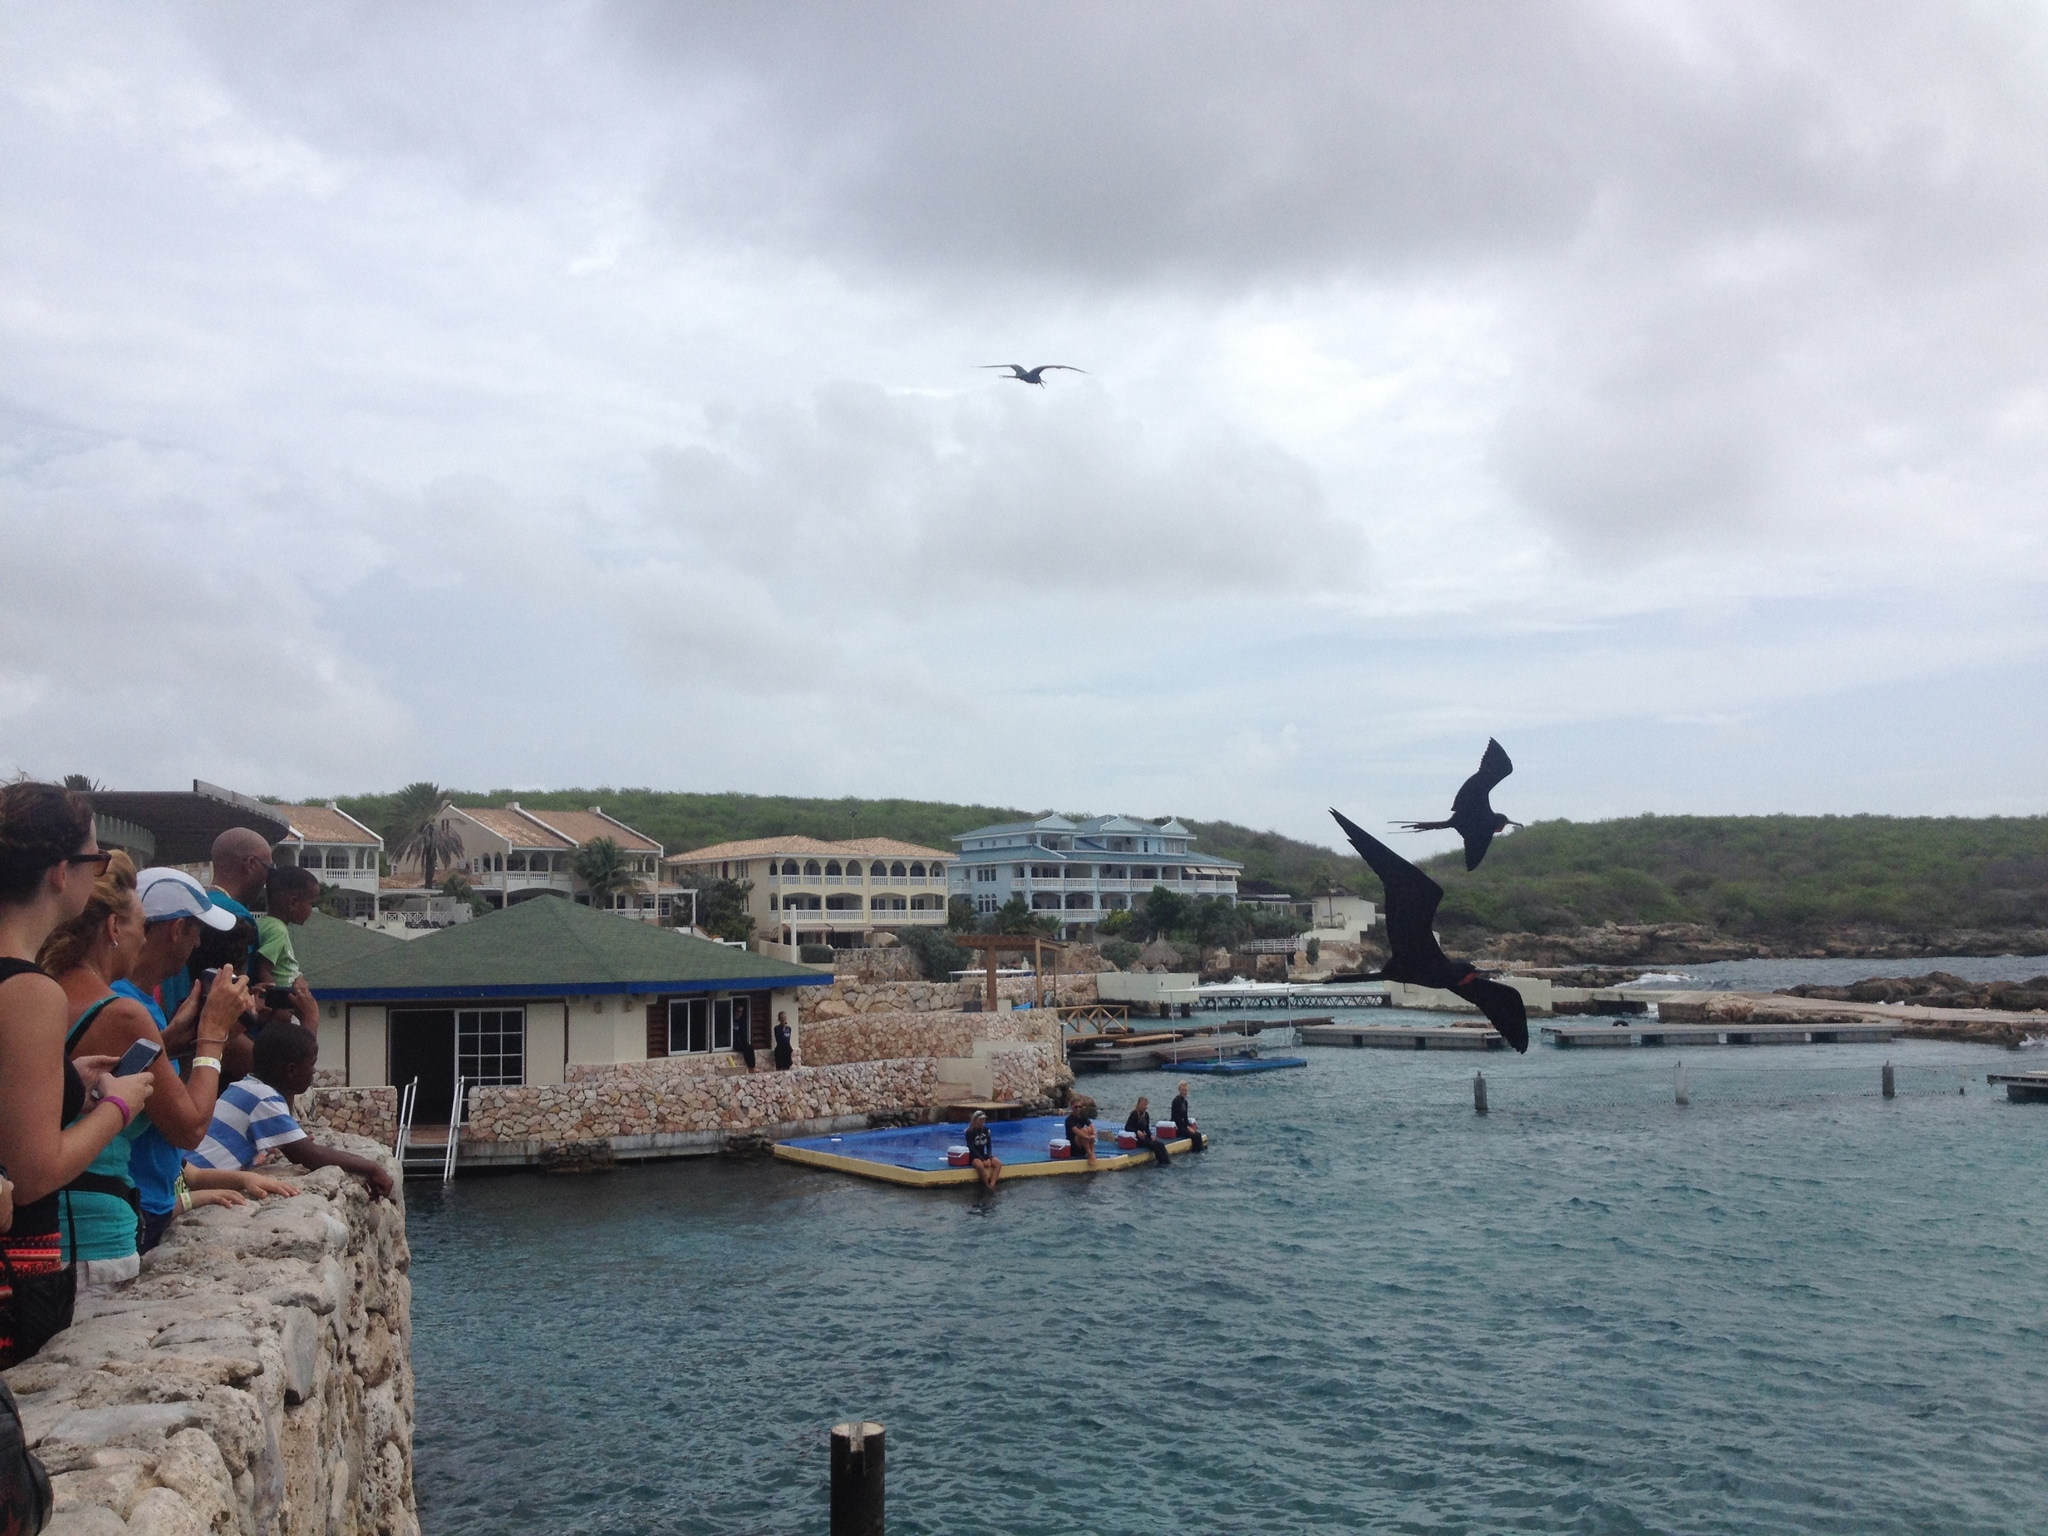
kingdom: Animalia
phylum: Chordata
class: Aves
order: Suliformes
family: Fregatidae
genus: Fregata
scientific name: Fregata magnificens
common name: Magnificent frigatebird
